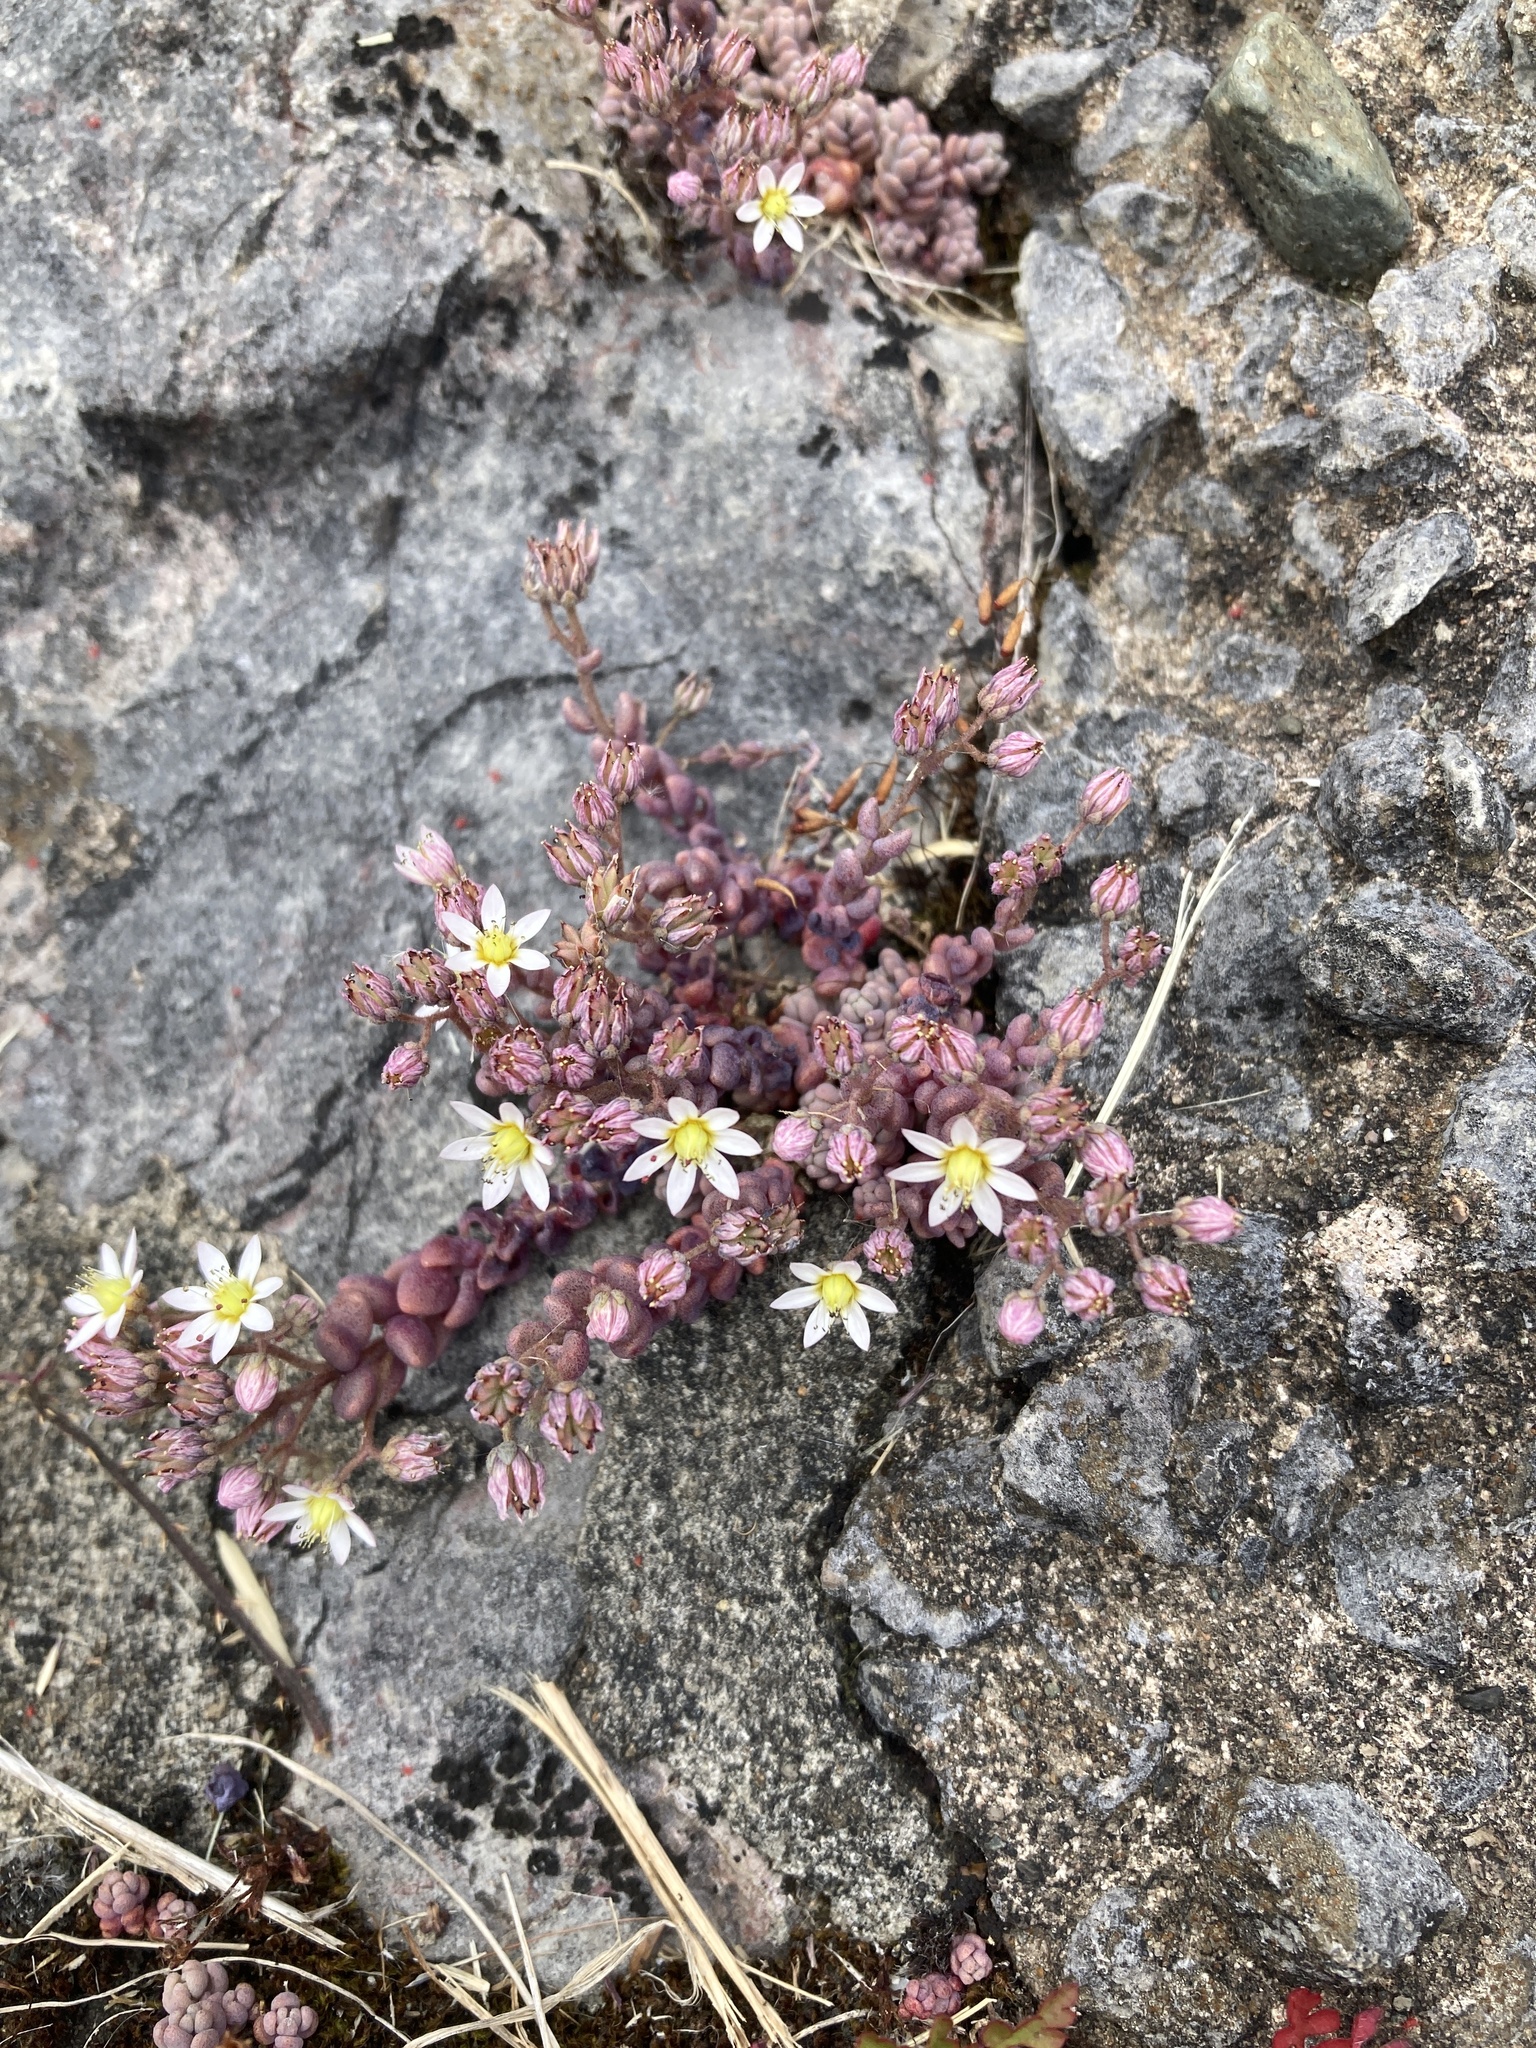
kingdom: Plantae
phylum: Tracheophyta
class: Magnoliopsida
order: Saxifragales
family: Crassulaceae
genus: Sedum
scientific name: Sedum dasyphyllum
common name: Thick-leaf stonecrop
